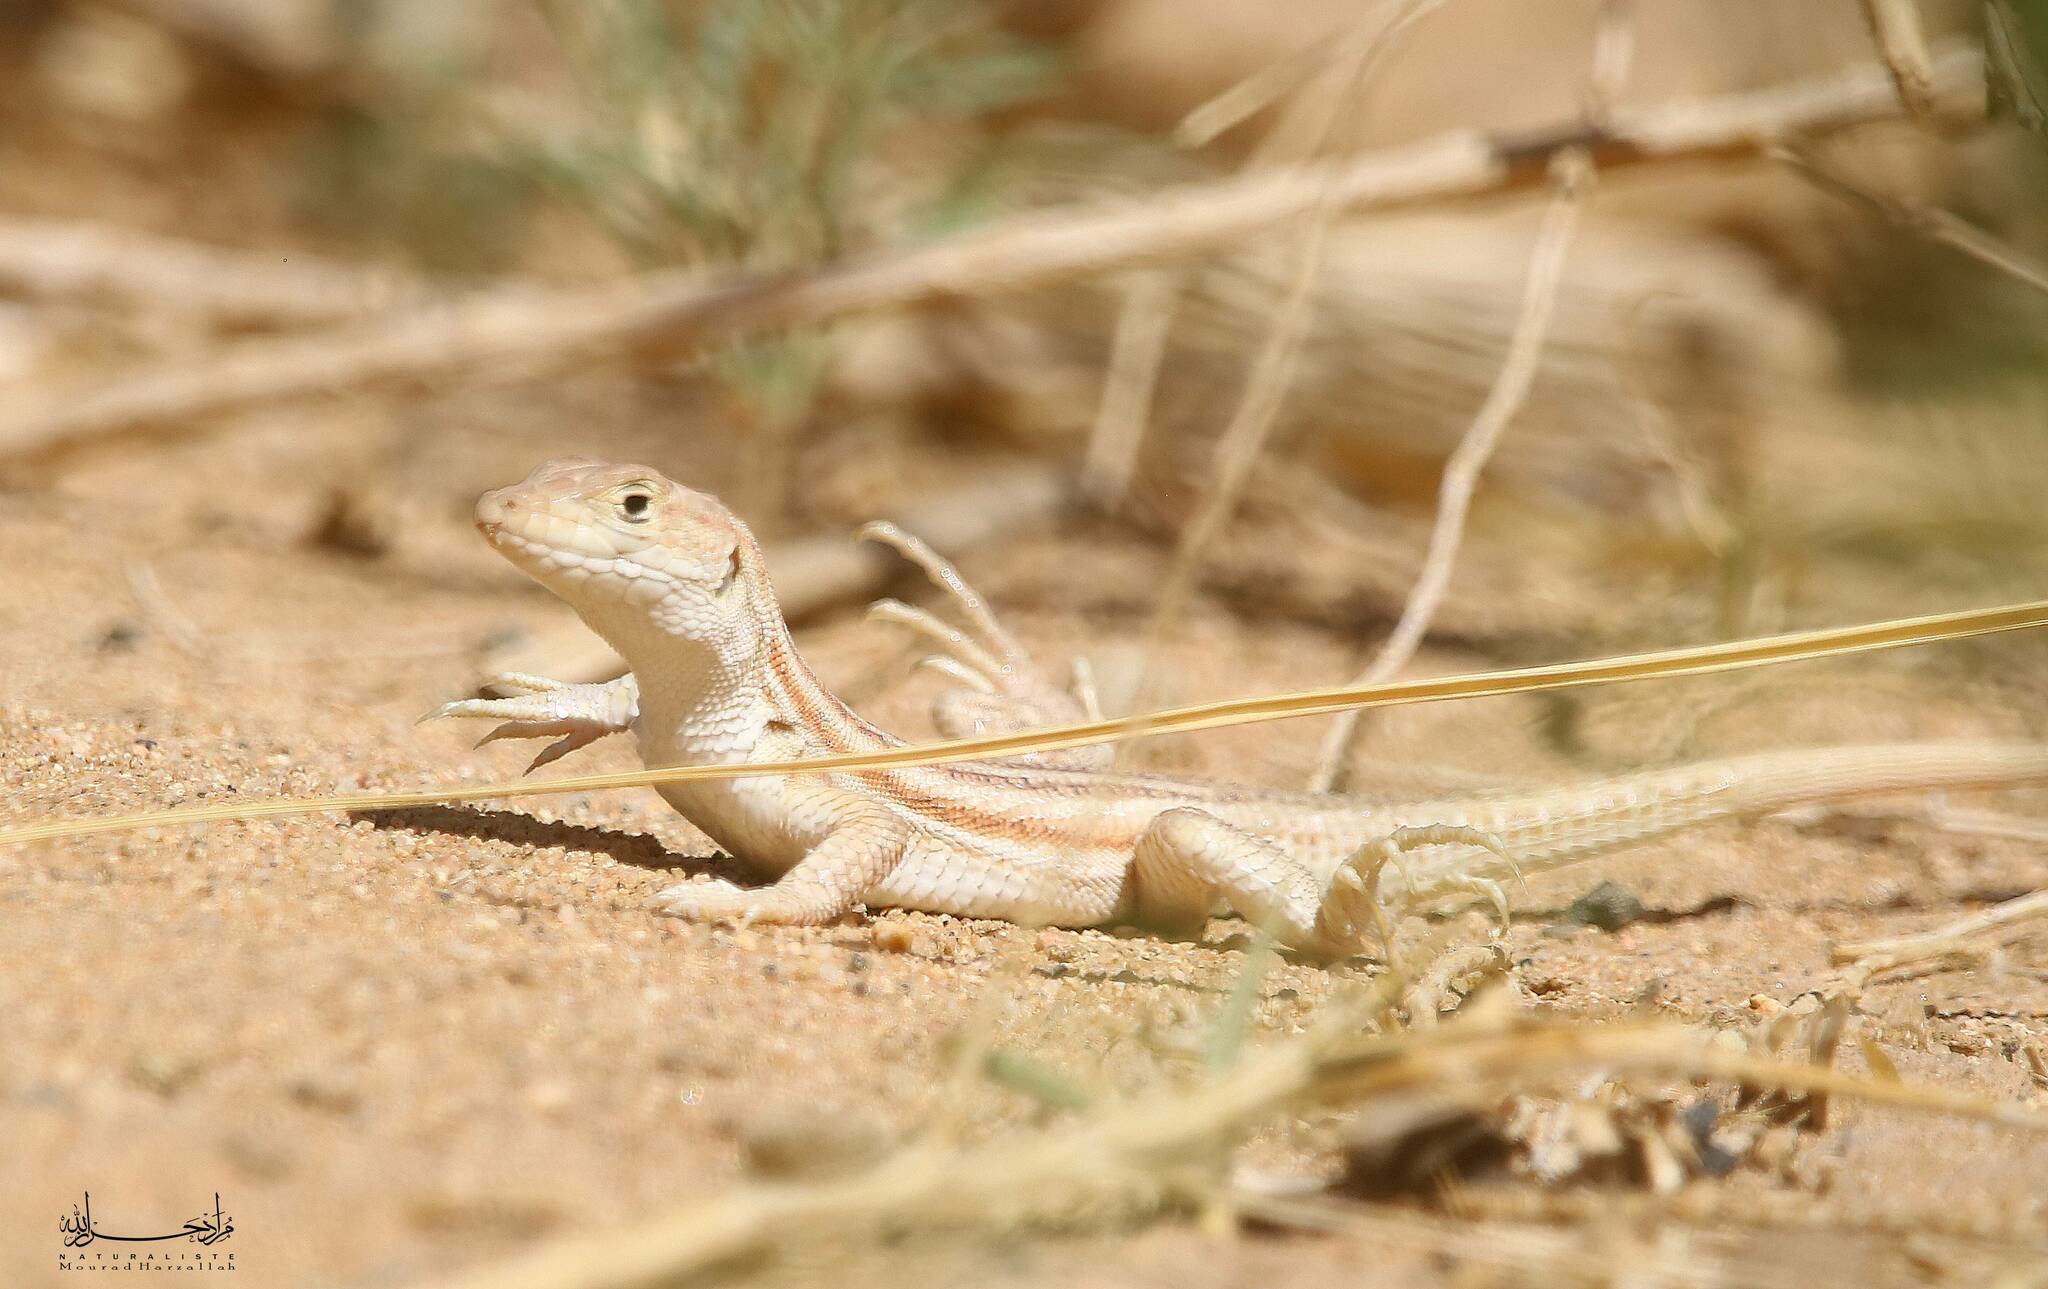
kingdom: Animalia
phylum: Chordata
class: Squamata
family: Lacertidae
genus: Acanthodactylus
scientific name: Acanthodactylus boskianus
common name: Bosc’s fringe-toed lizard
